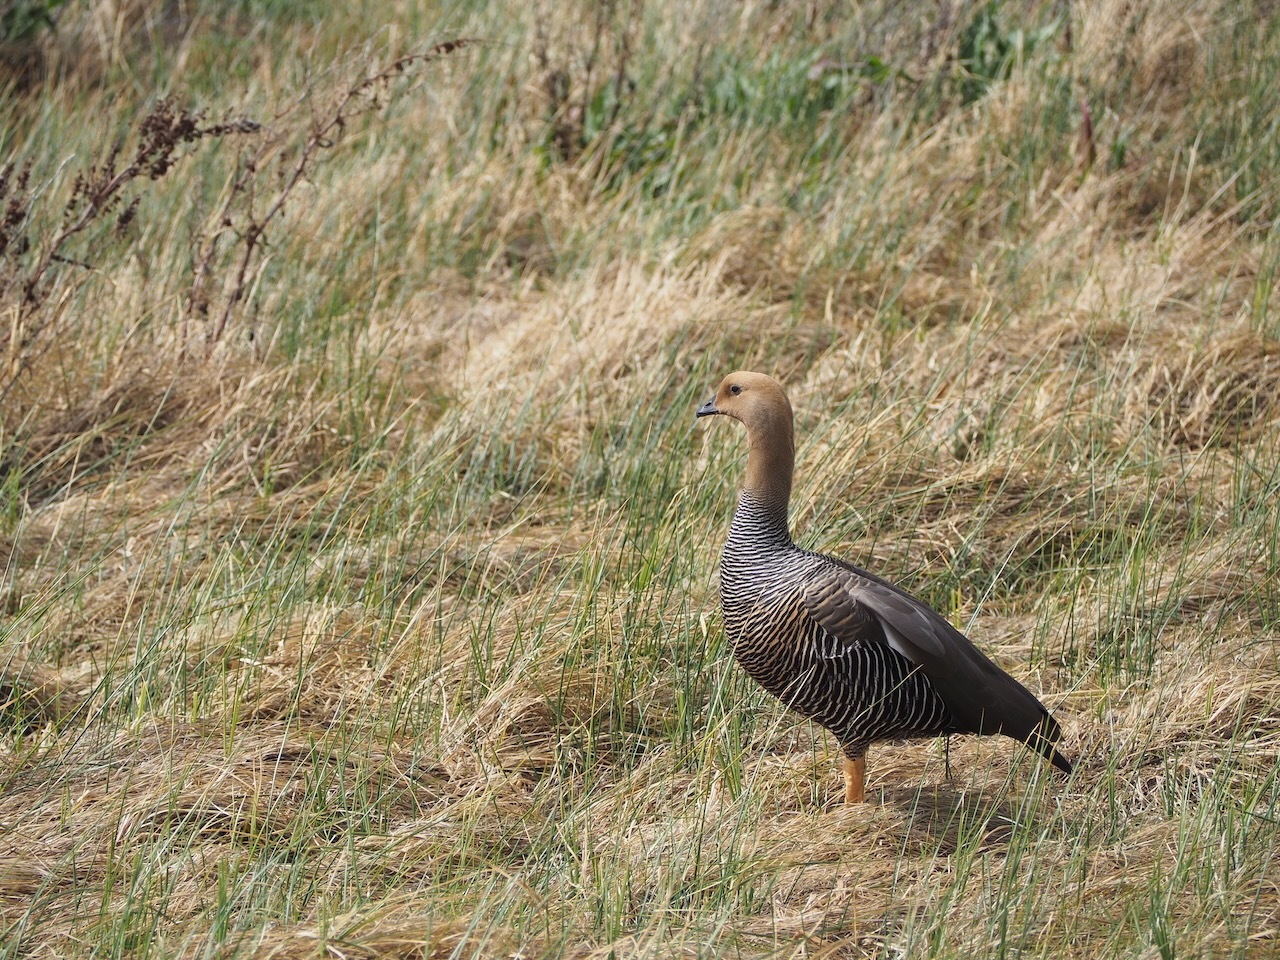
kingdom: Animalia
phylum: Chordata
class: Aves
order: Anseriformes
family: Anatidae
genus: Chloephaga
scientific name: Chloephaga picta
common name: Upland goose
